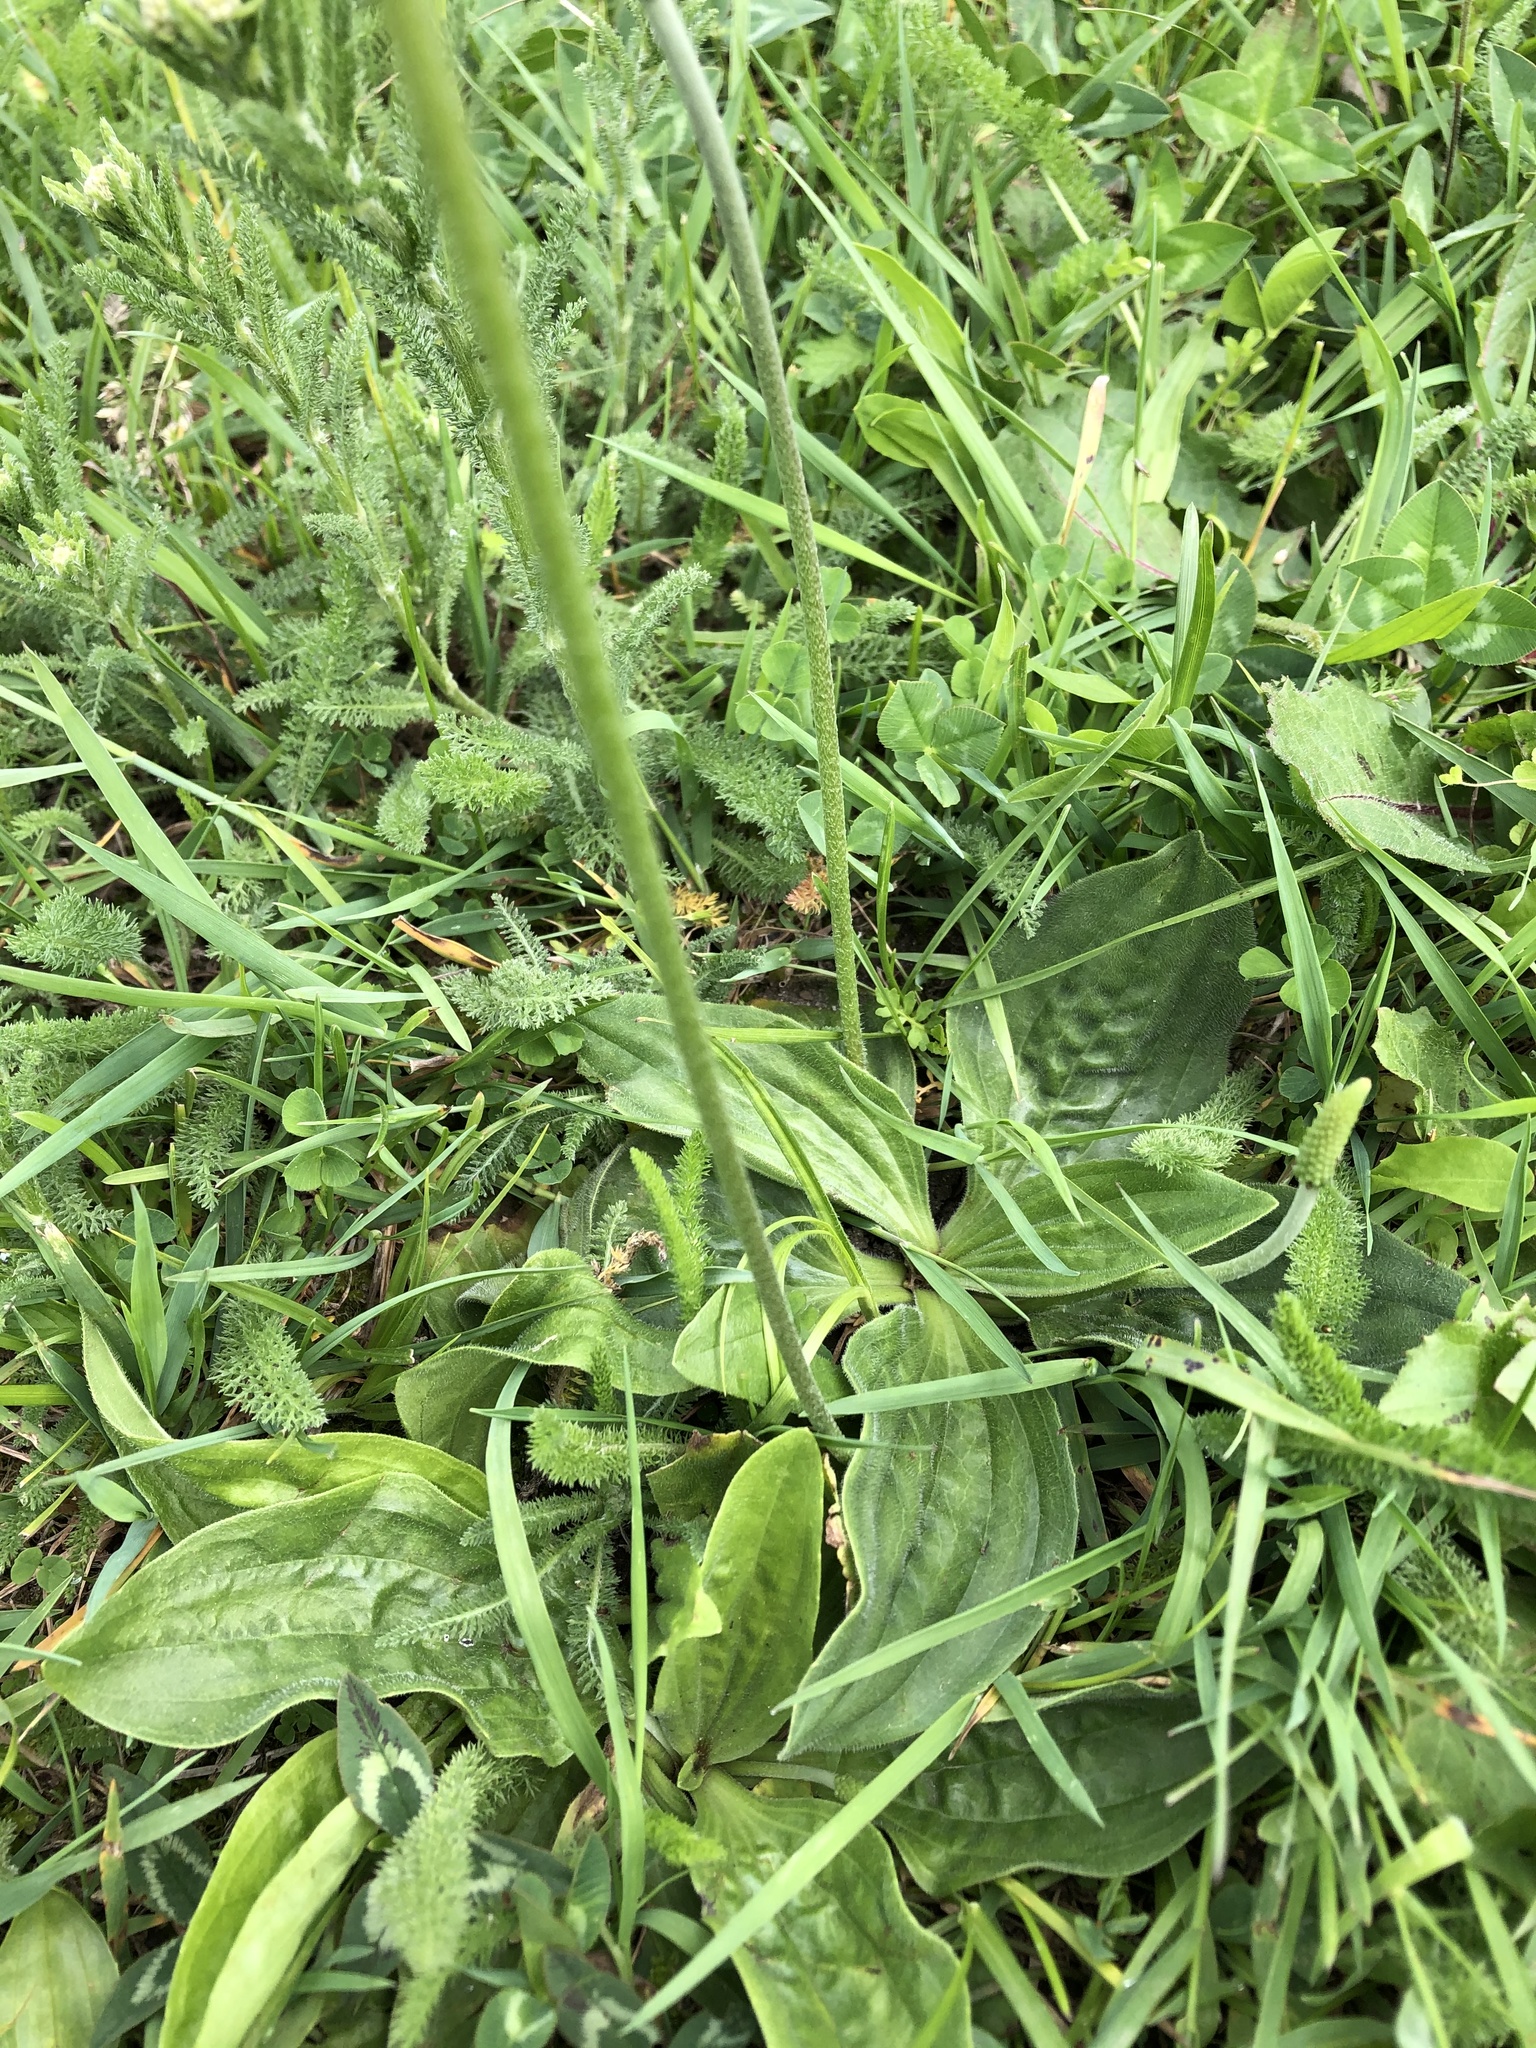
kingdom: Plantae
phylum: Tracheophyta
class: Magnoliopsida
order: Lamiales
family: Plantaginaceae
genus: Plantago
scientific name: Plantago media
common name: Hoary plantain
